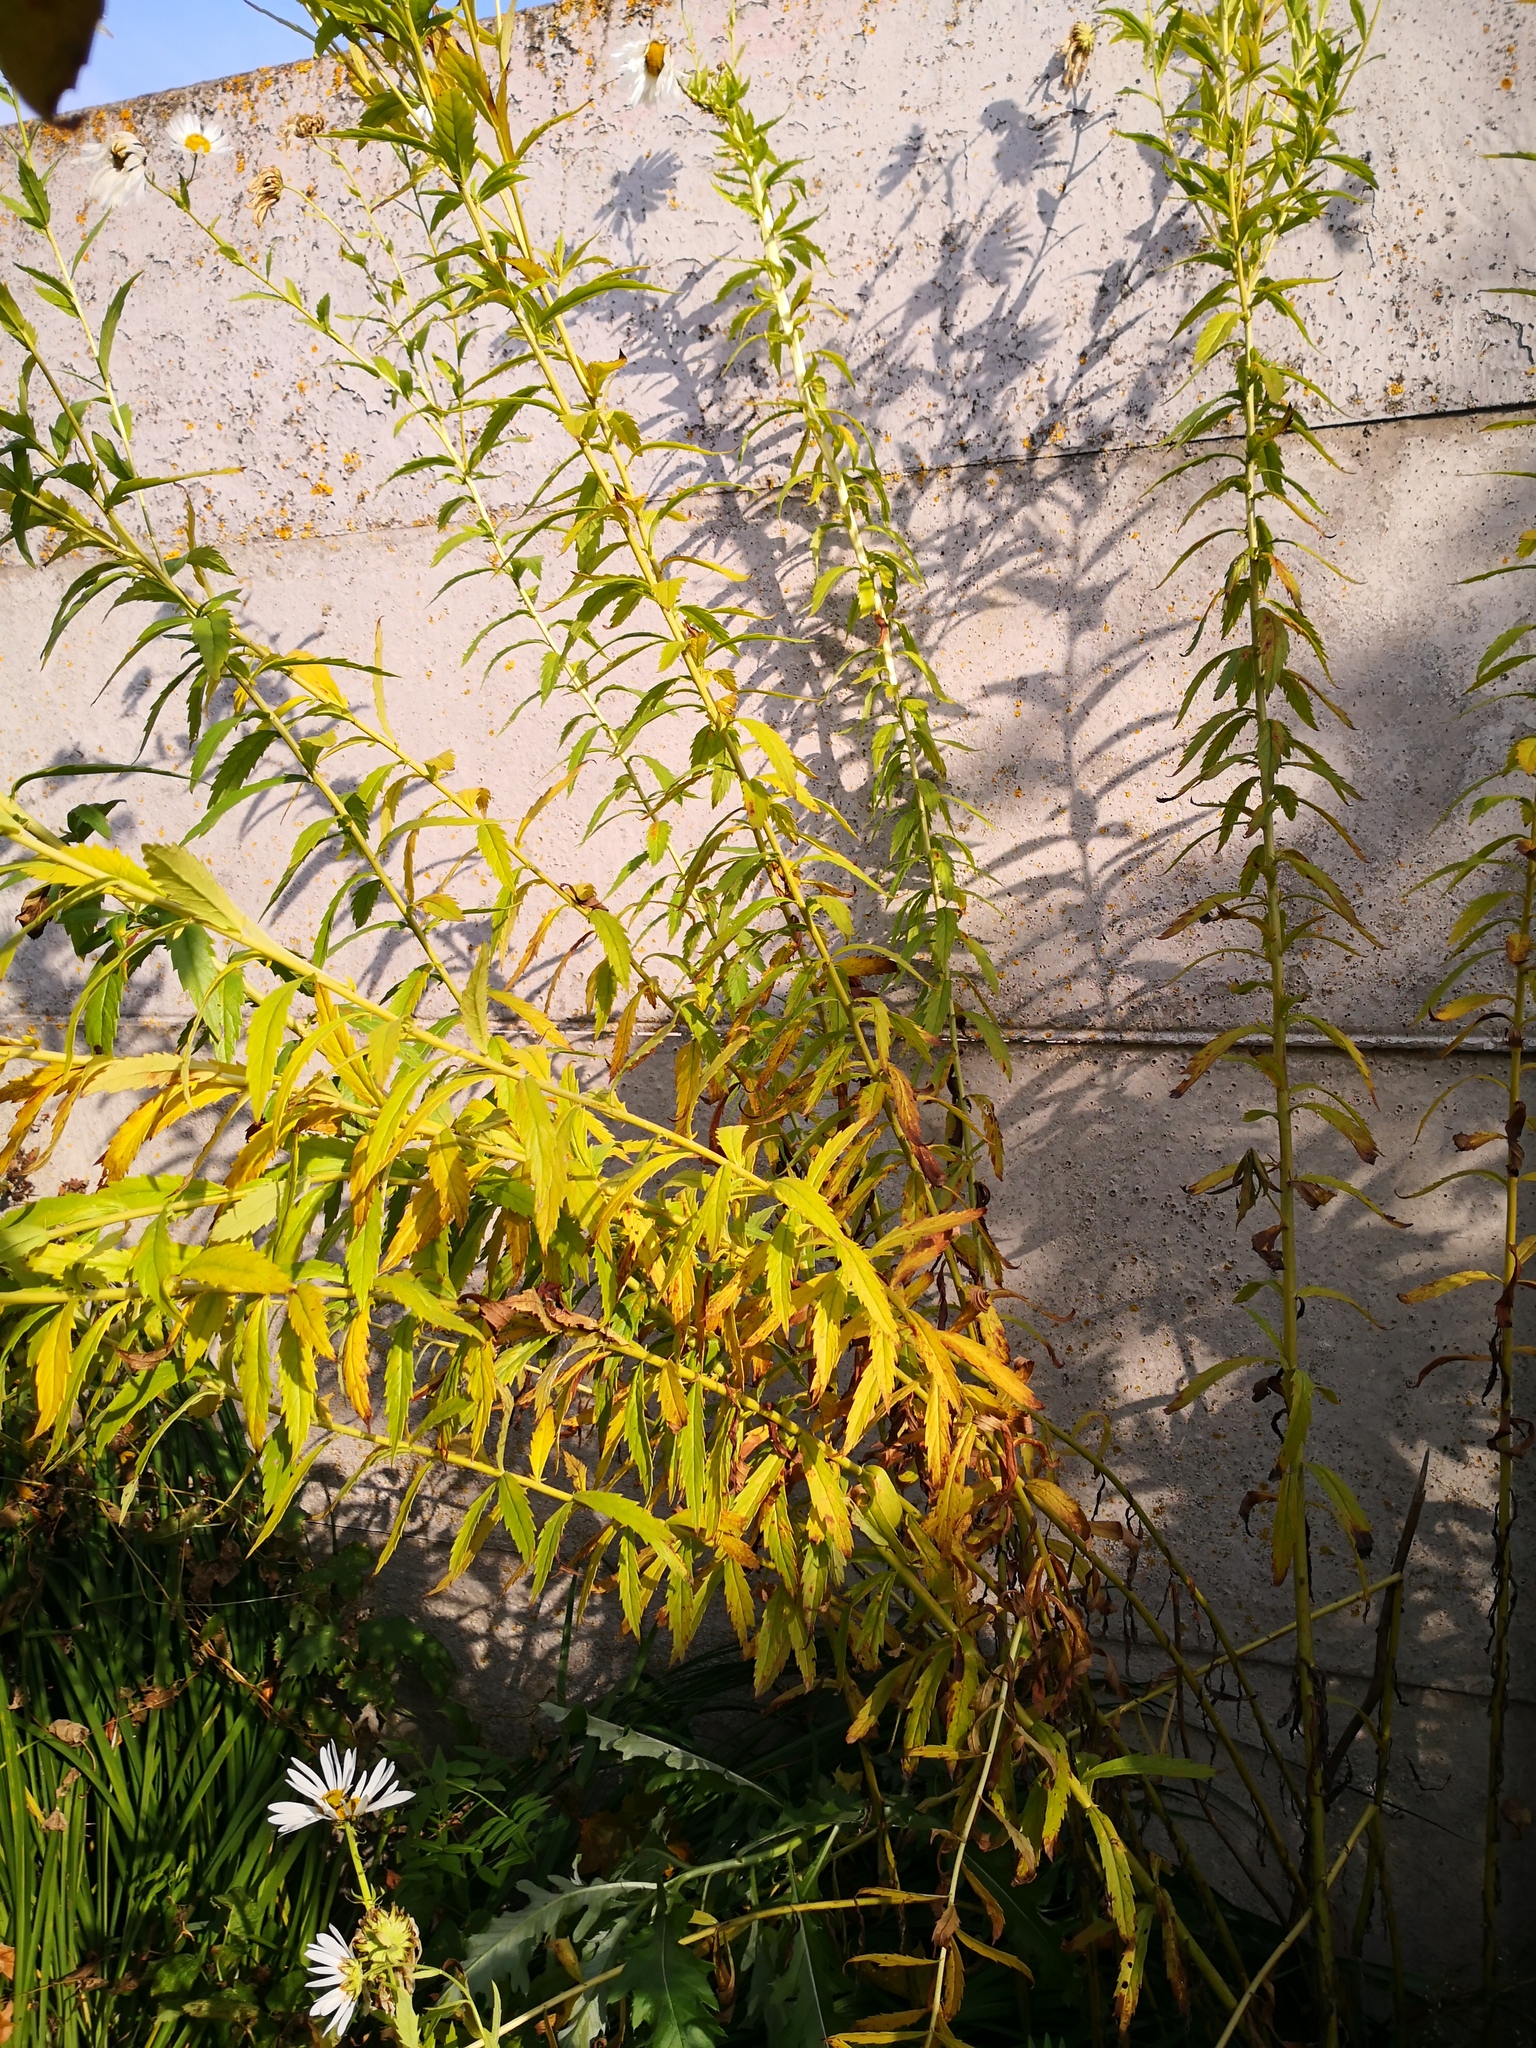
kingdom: Plantae
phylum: Tracheophyta
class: Magnoliopsida
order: Asterales
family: Asteraceae
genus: Solidago
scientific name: Solidago canadensis
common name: Canada goldenrod
